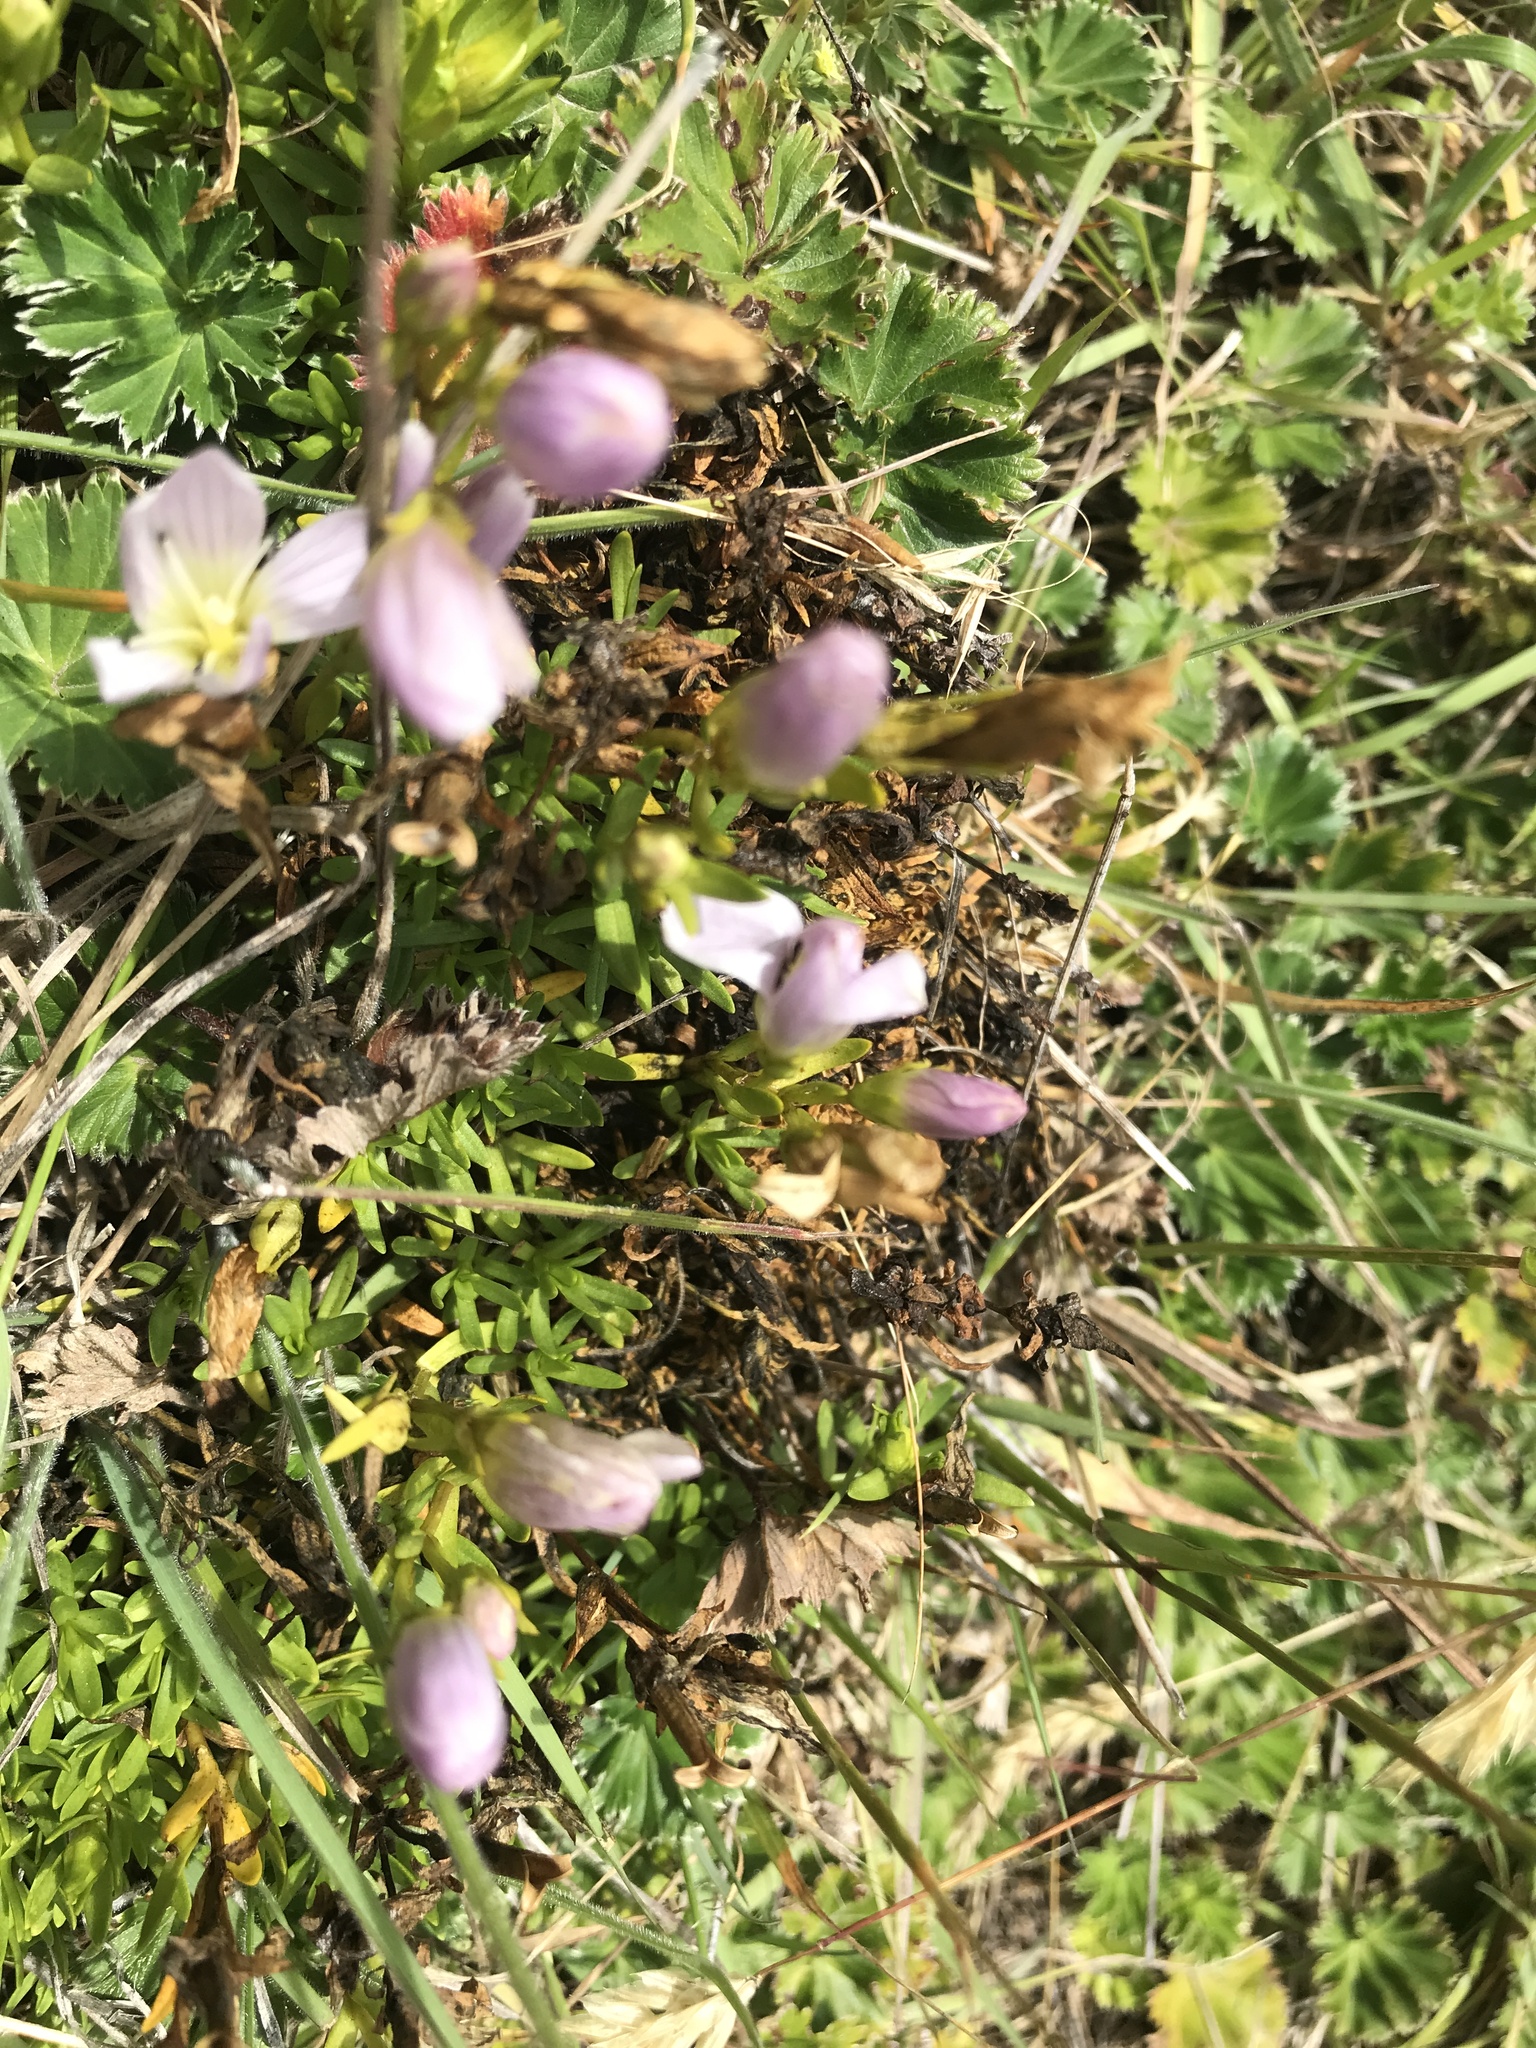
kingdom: Plantae
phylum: Tracheophyta
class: Magnoliopsida
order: Gentianales
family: Gentianaceae
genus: Gentianella
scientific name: Gentianella cerastioides
